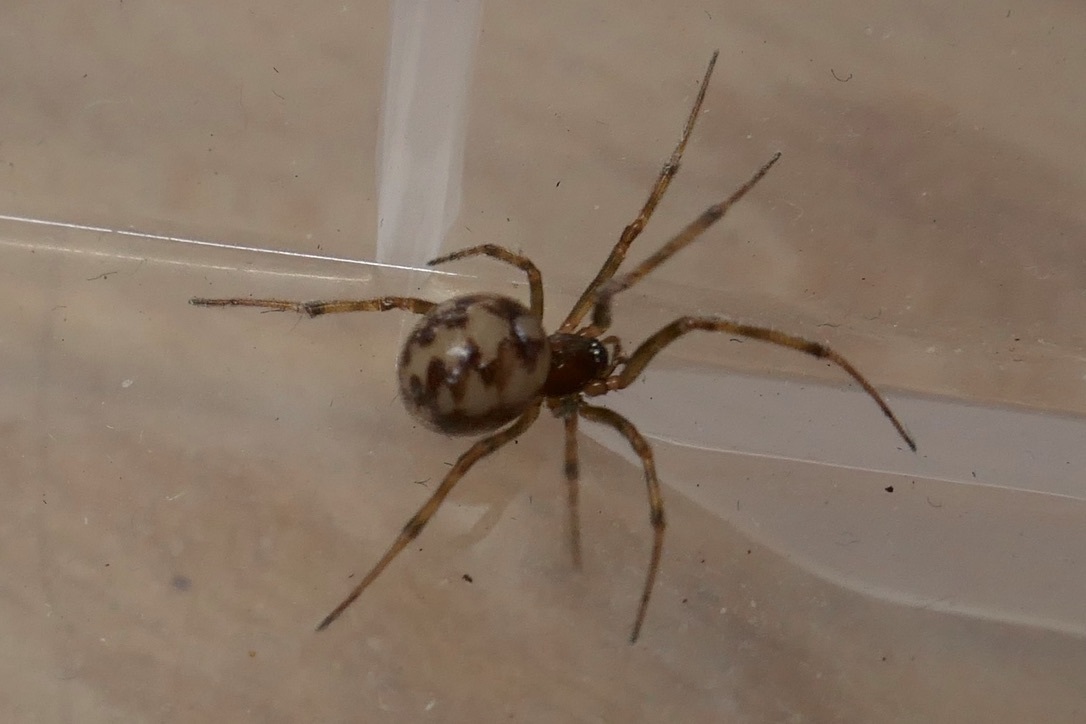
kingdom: Animalia
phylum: Arthropoda
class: Arachnida
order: Araneae
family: Theridiidae
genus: Steatoda
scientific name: Steatoda triangulosa
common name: Triangulate bud spider
